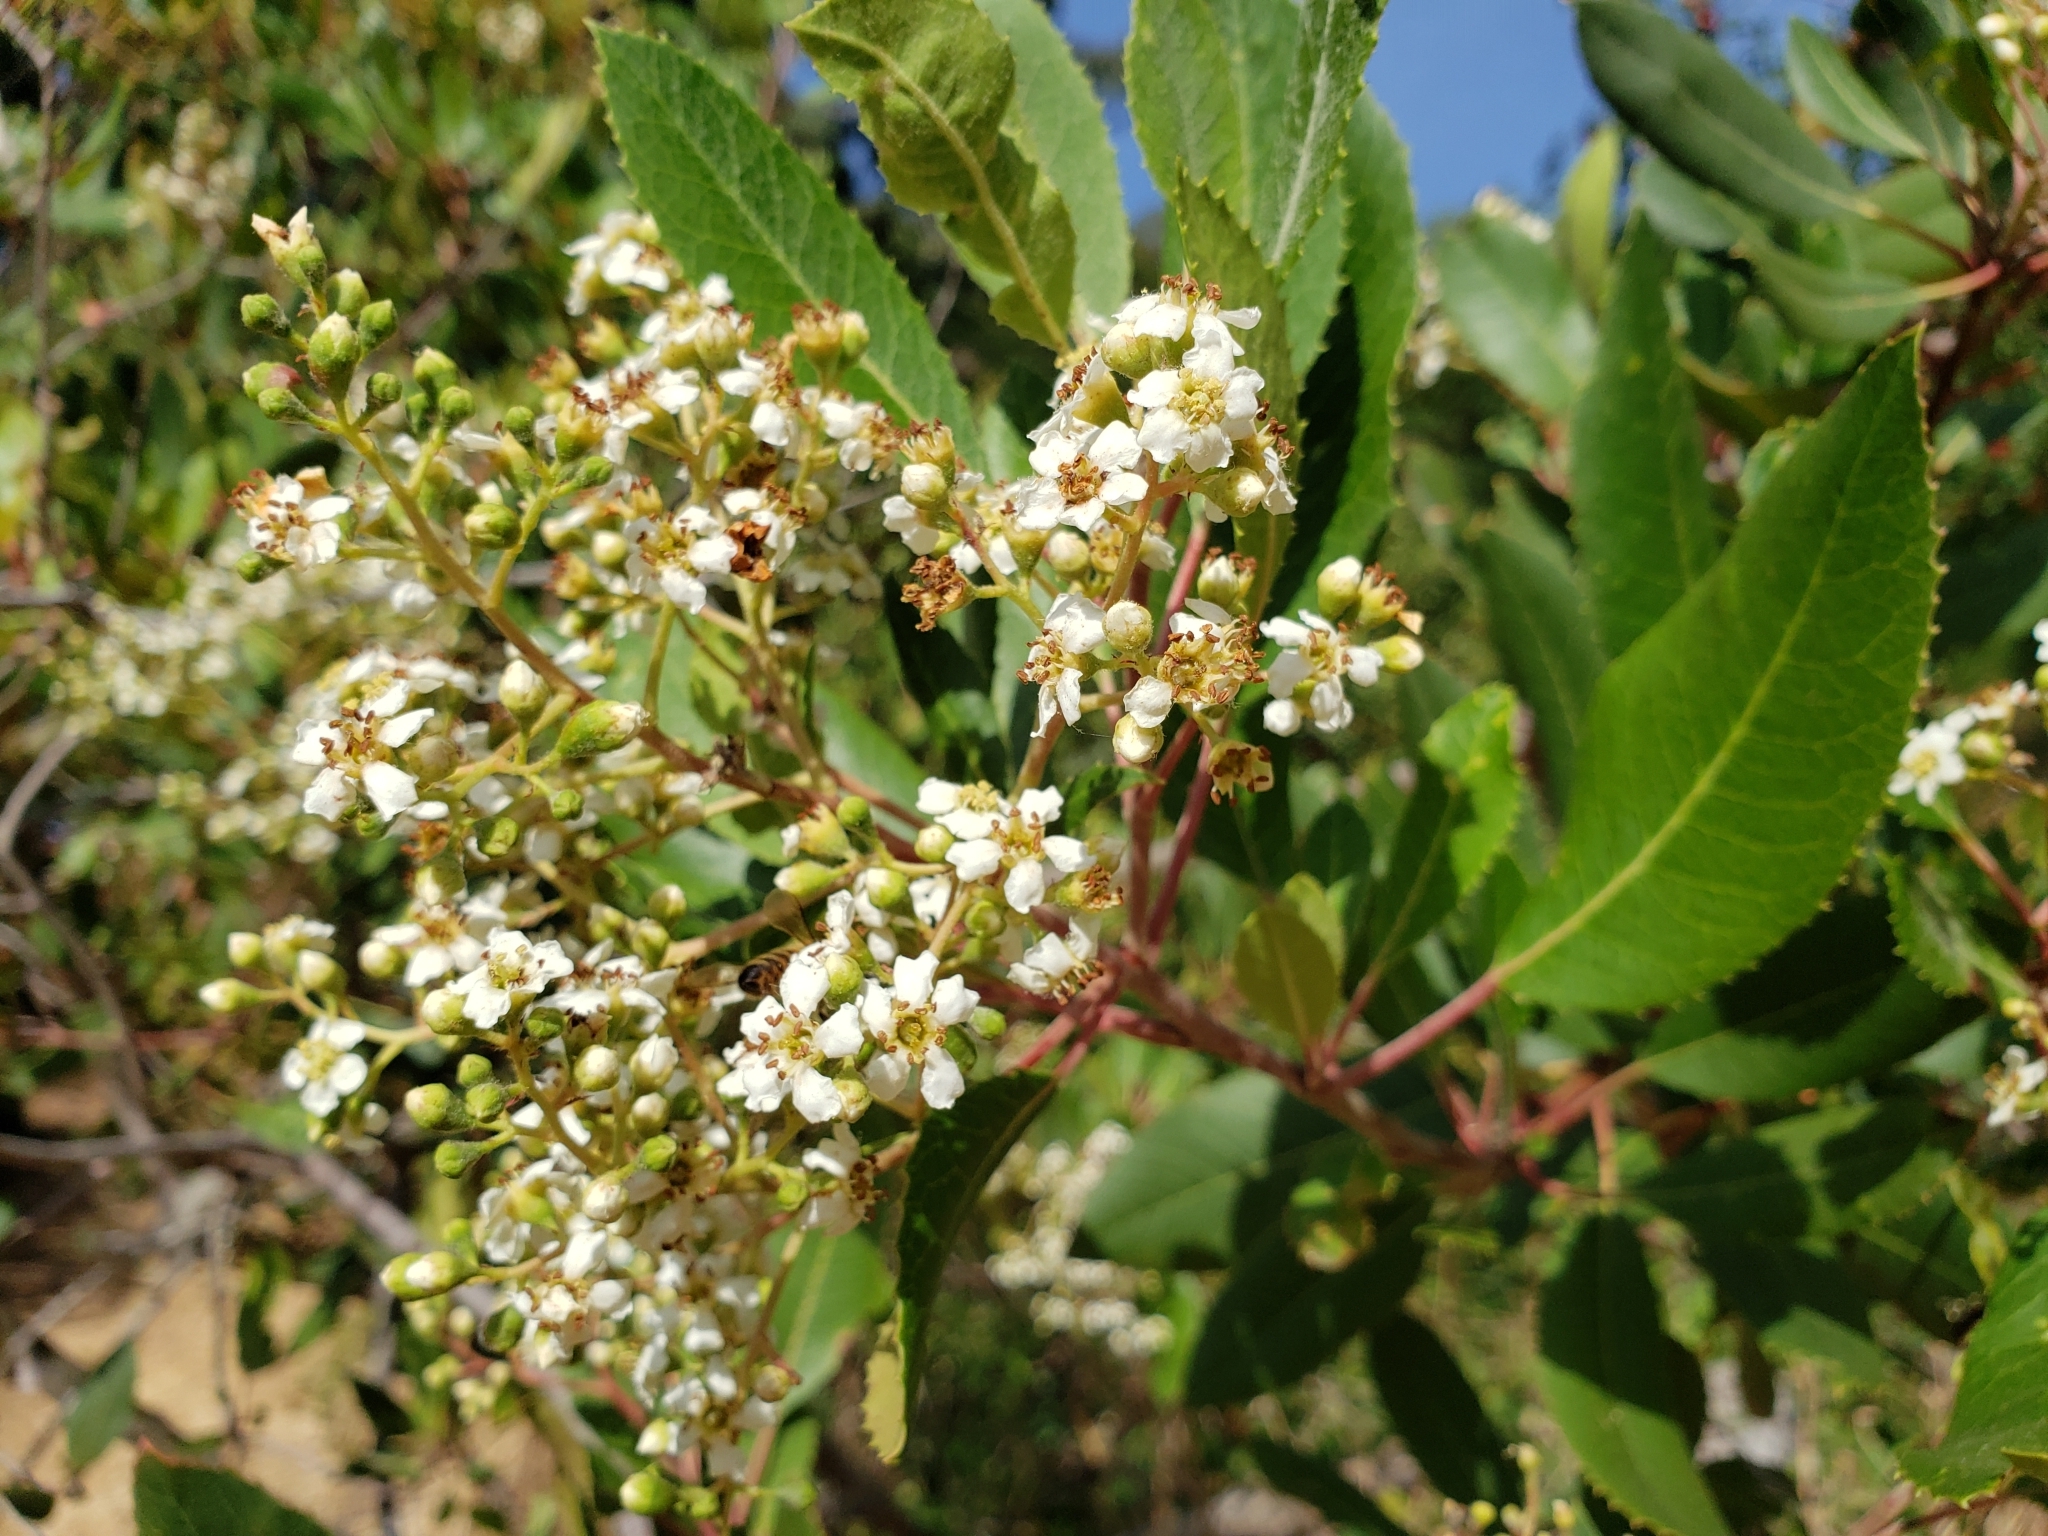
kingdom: Plantae
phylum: Tracheophyta
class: Magnoliopsida
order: Rosales
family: Rosaceae
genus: Heteromeles
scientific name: Heteromeles arbutifolia
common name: California-holly
